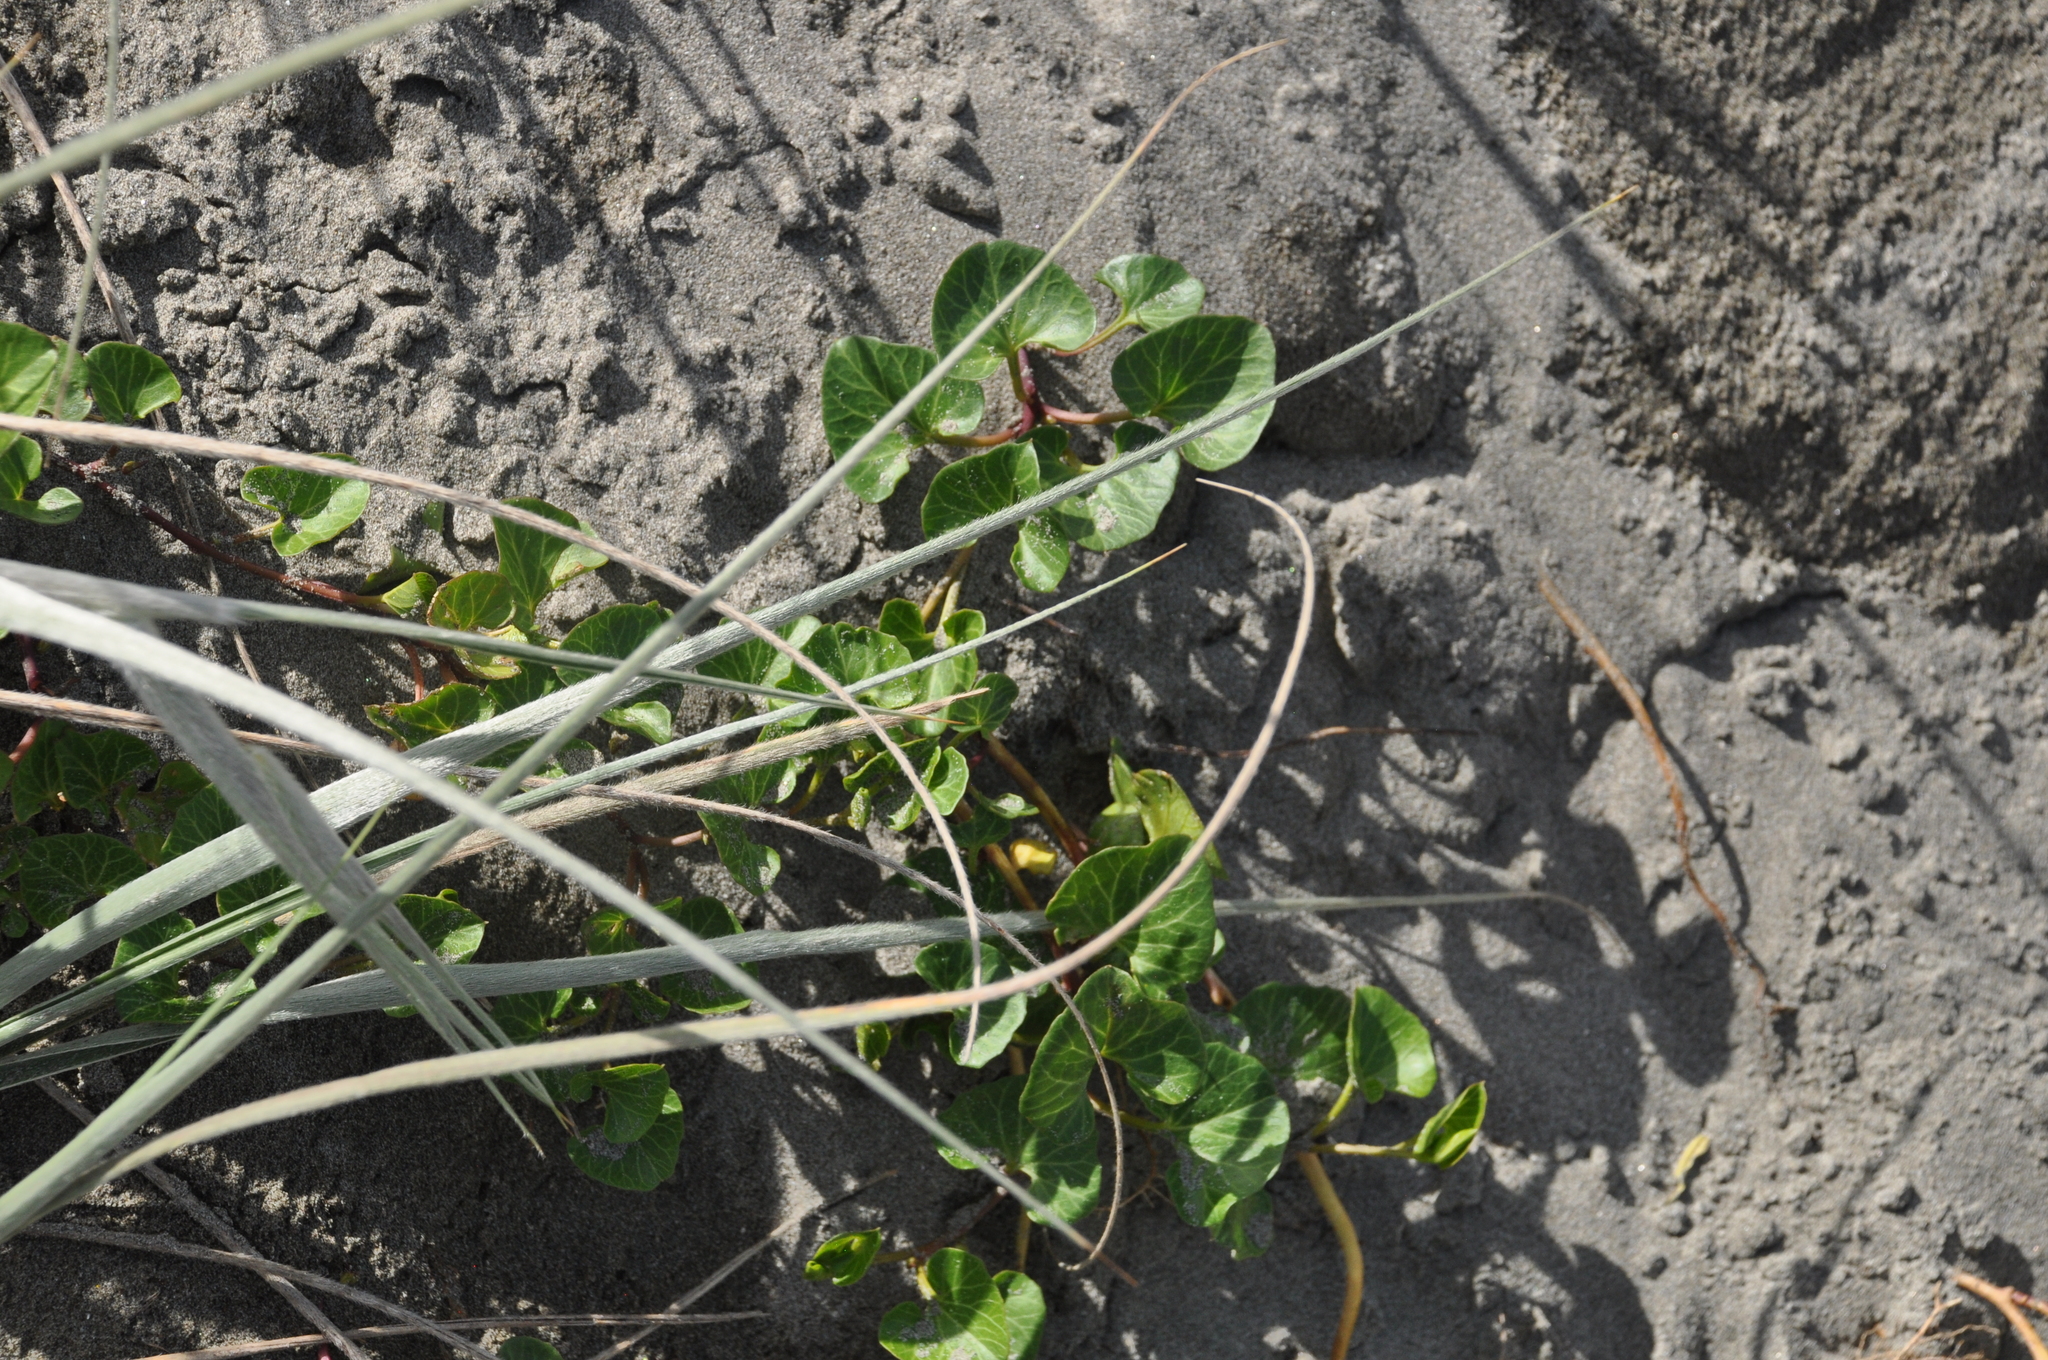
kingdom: Plantae
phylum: Tracheophyta
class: Magnoliopsida
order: Solanales
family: Convolvulaceae
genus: Calystegia
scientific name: Calystegia soldanella
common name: Sea bindweed
